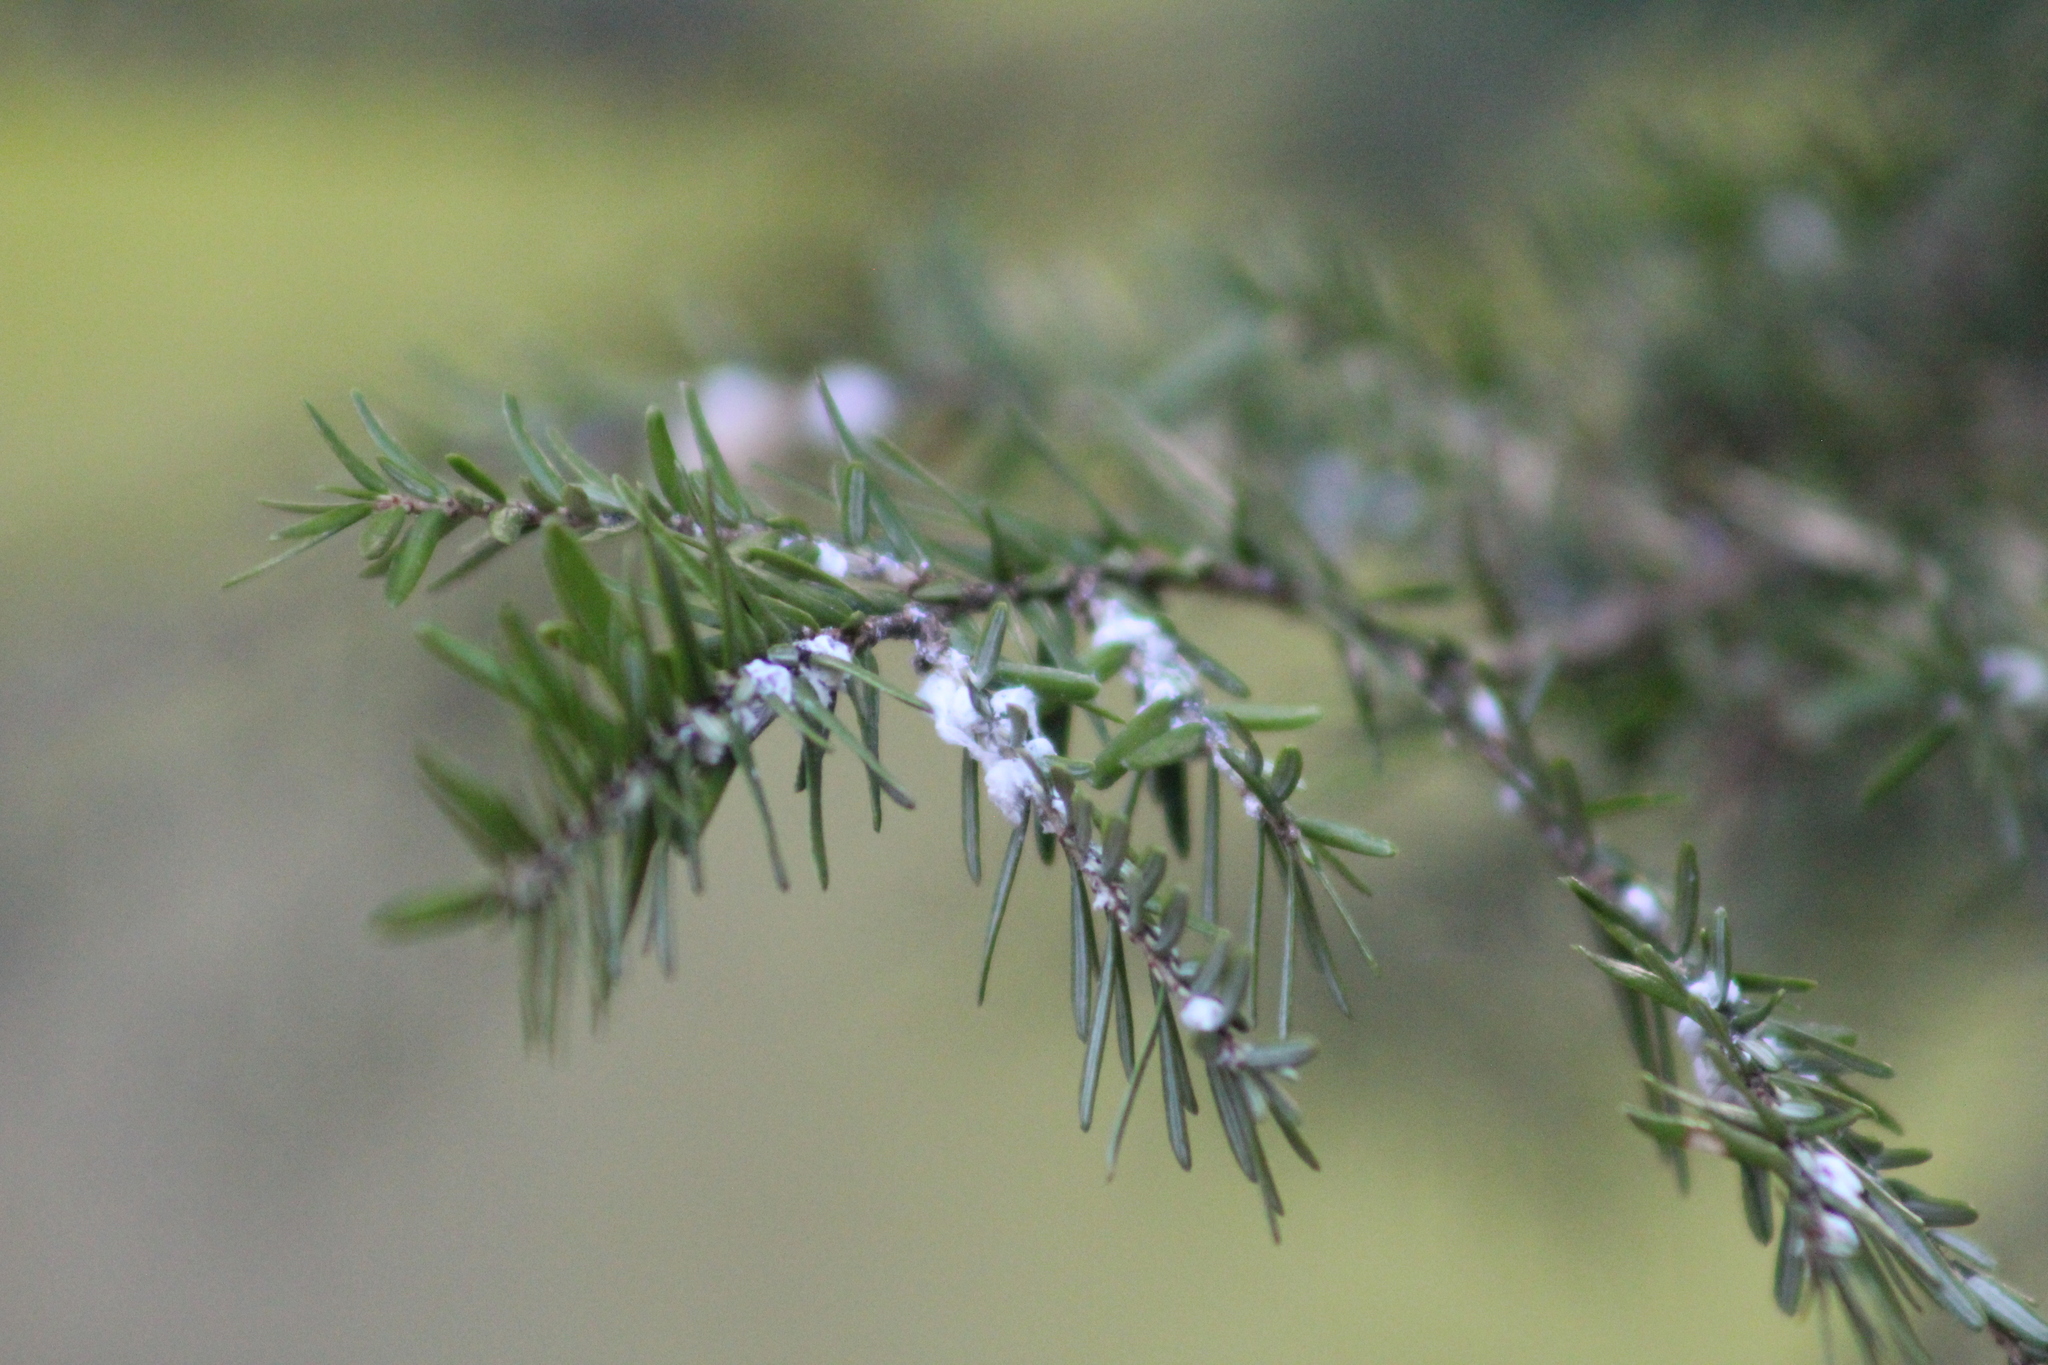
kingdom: Animalia
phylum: Arthropoda
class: Insecta
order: Hemiptera
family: Adelgidae
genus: Adelges
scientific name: Adelges tsugae
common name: Hemlock woolly adelgid
